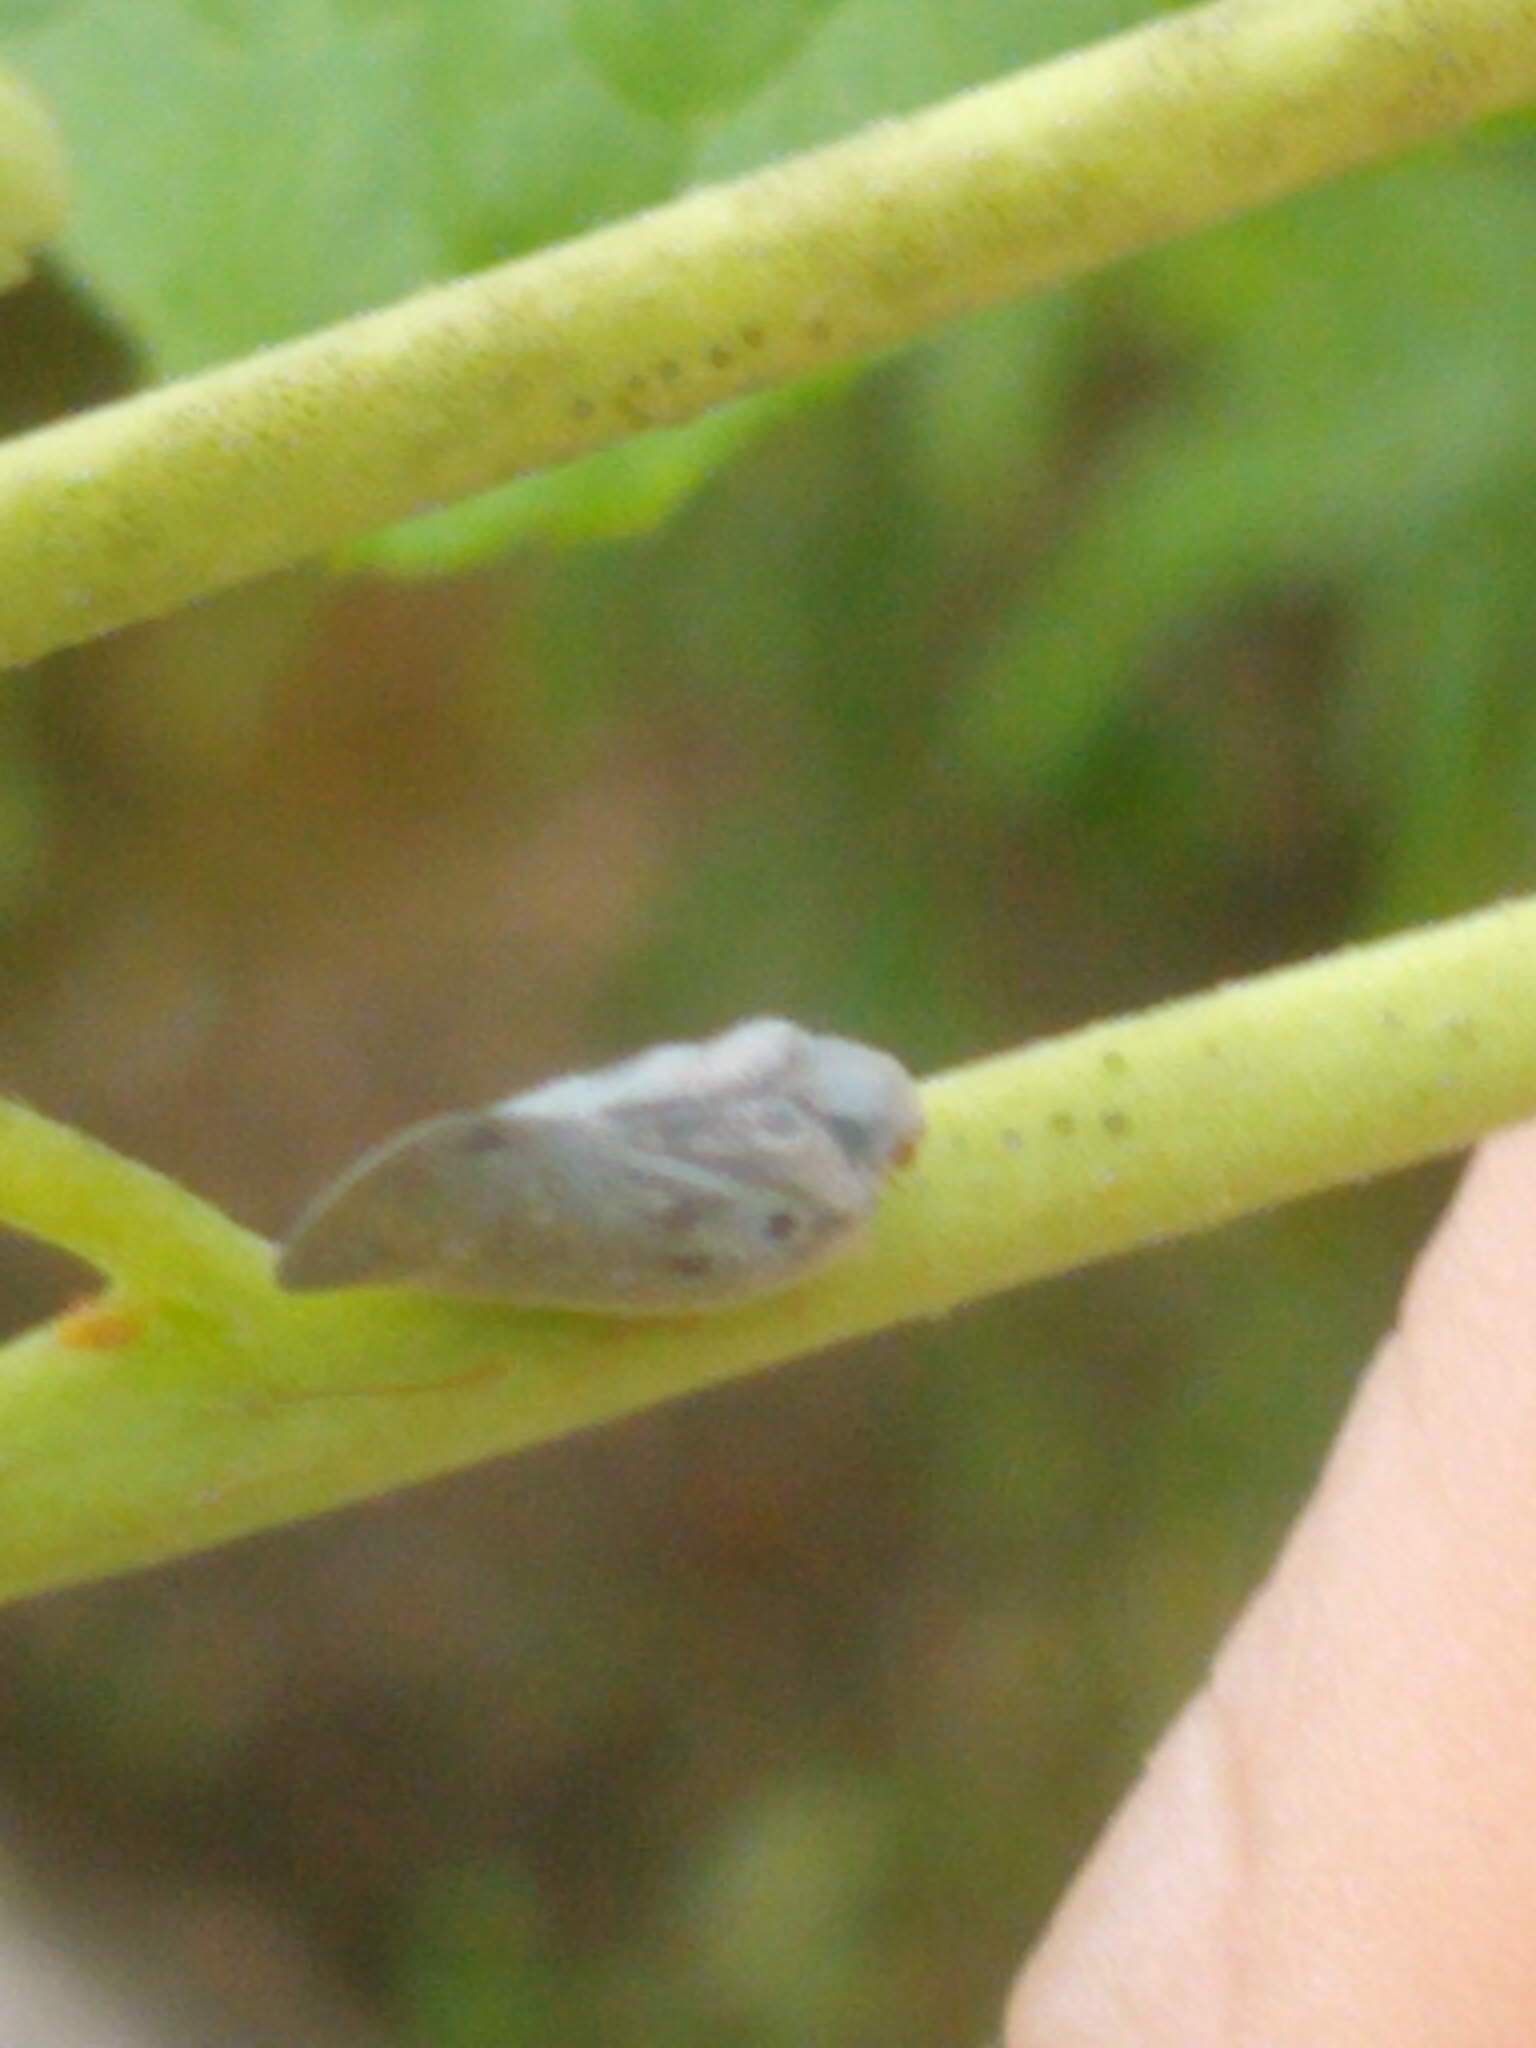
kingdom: Animalia
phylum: Arthropoda
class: Insecta
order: Hemiptera
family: Flatidae
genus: Metcalfa
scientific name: Metcalfa pruinosa
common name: Citrus flatid planthopper
